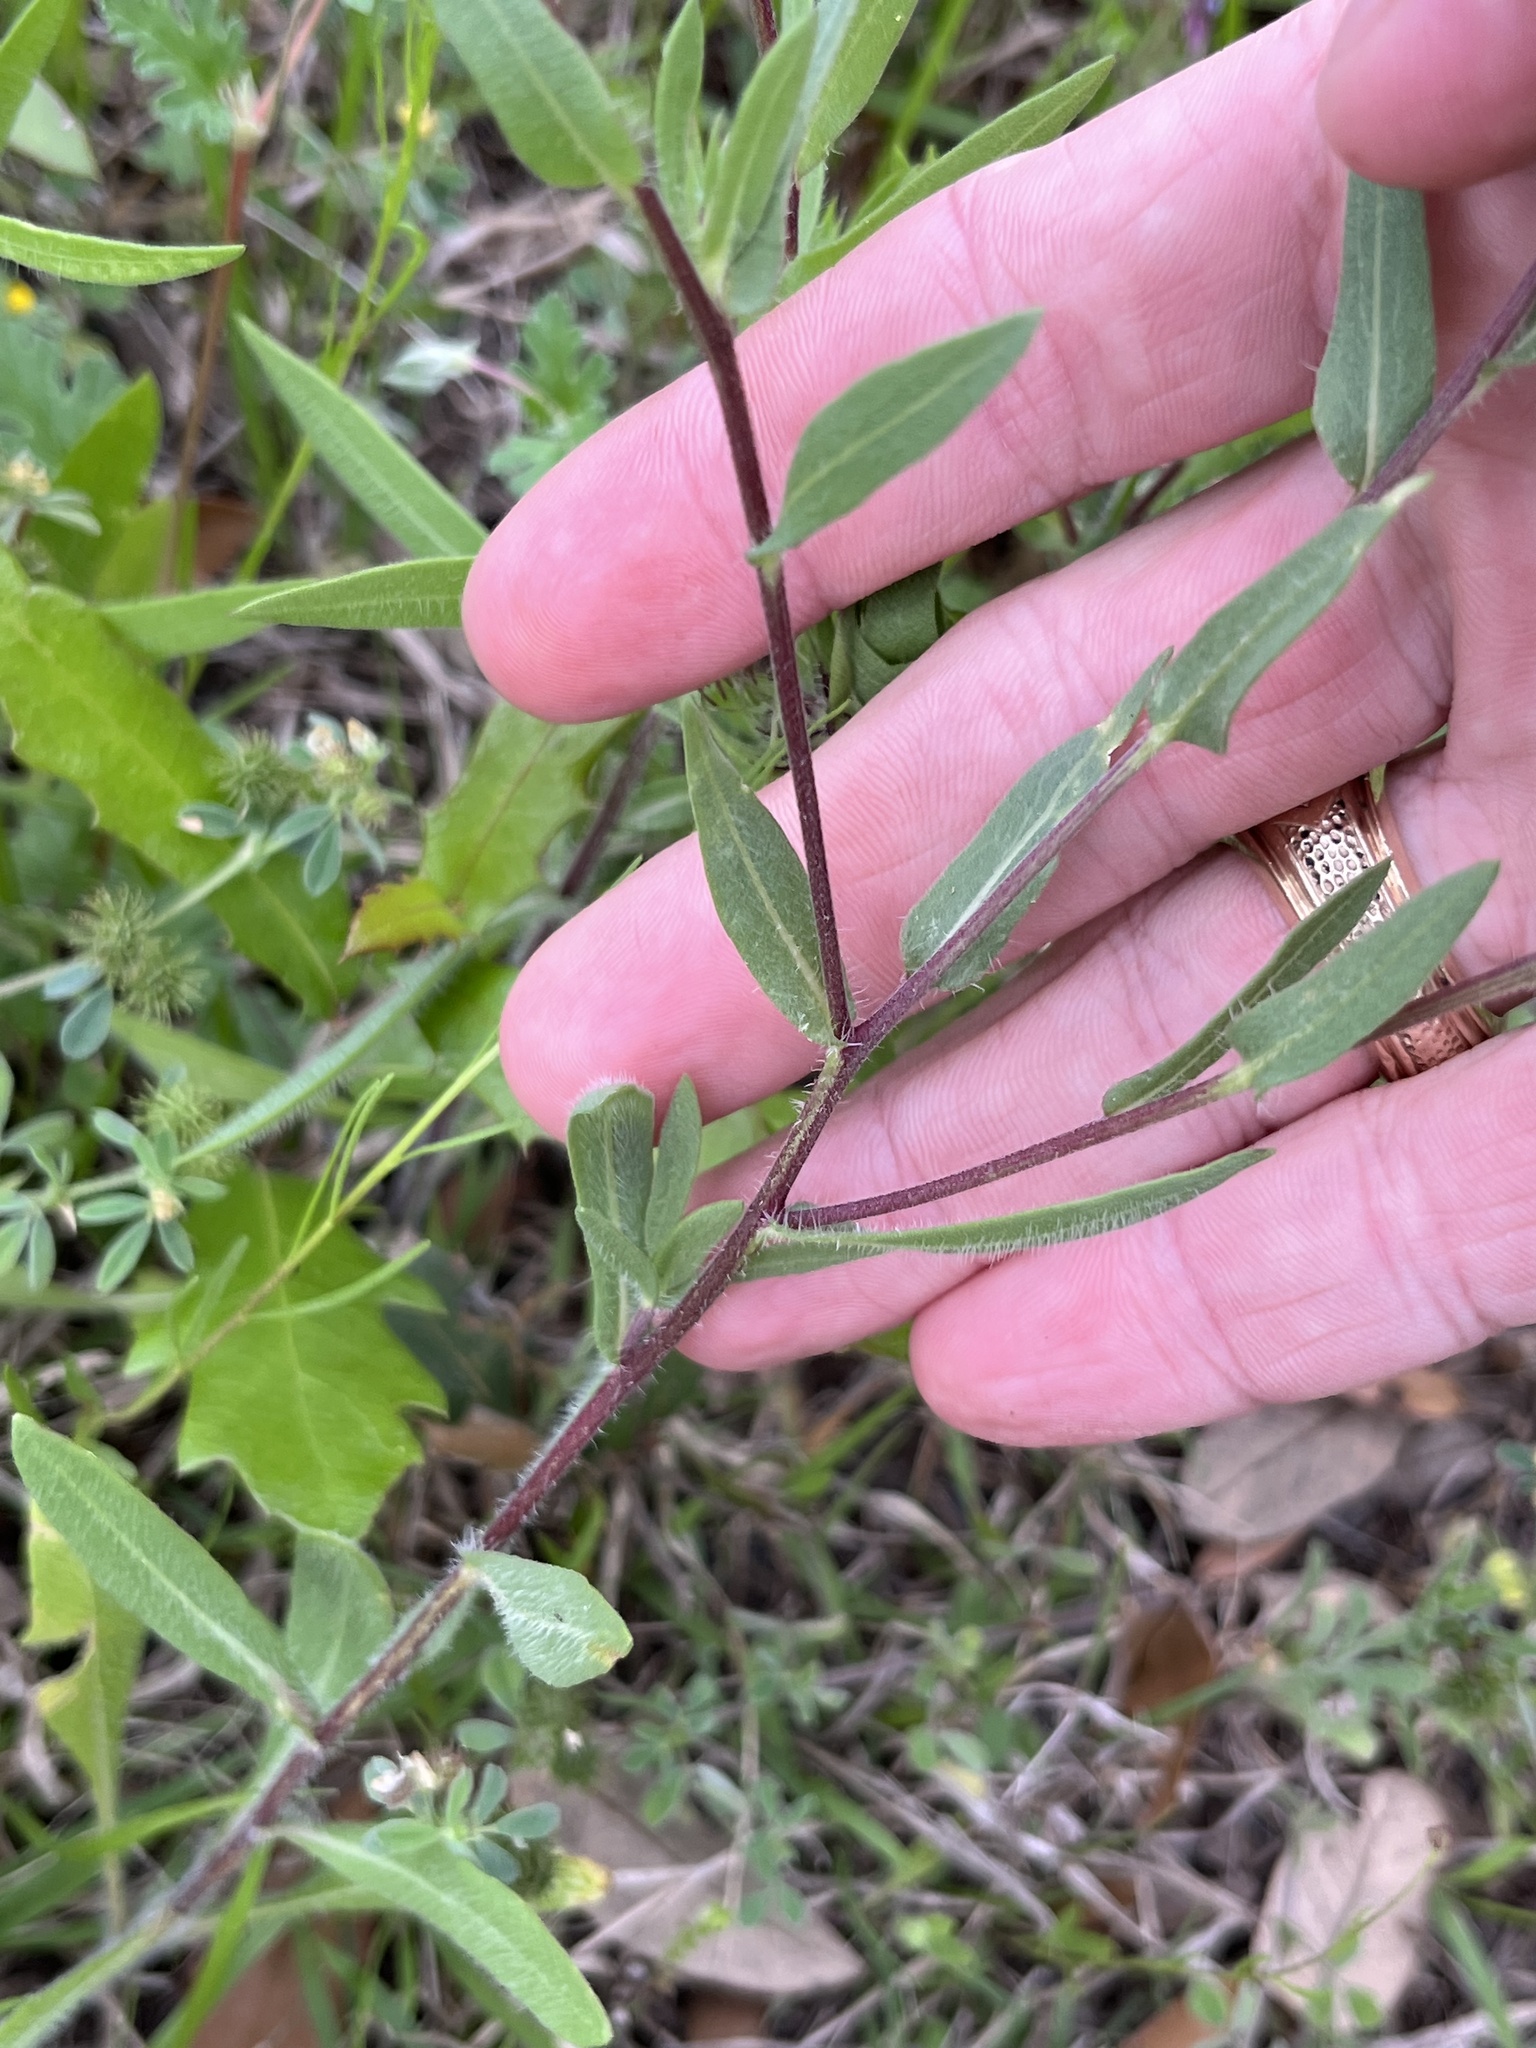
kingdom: Plantae
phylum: Tracheophyta
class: Magnoliopsida
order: Asterales
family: Asteraceae
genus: Gaillardia
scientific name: Gaillardia pulchella
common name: Firewheel
